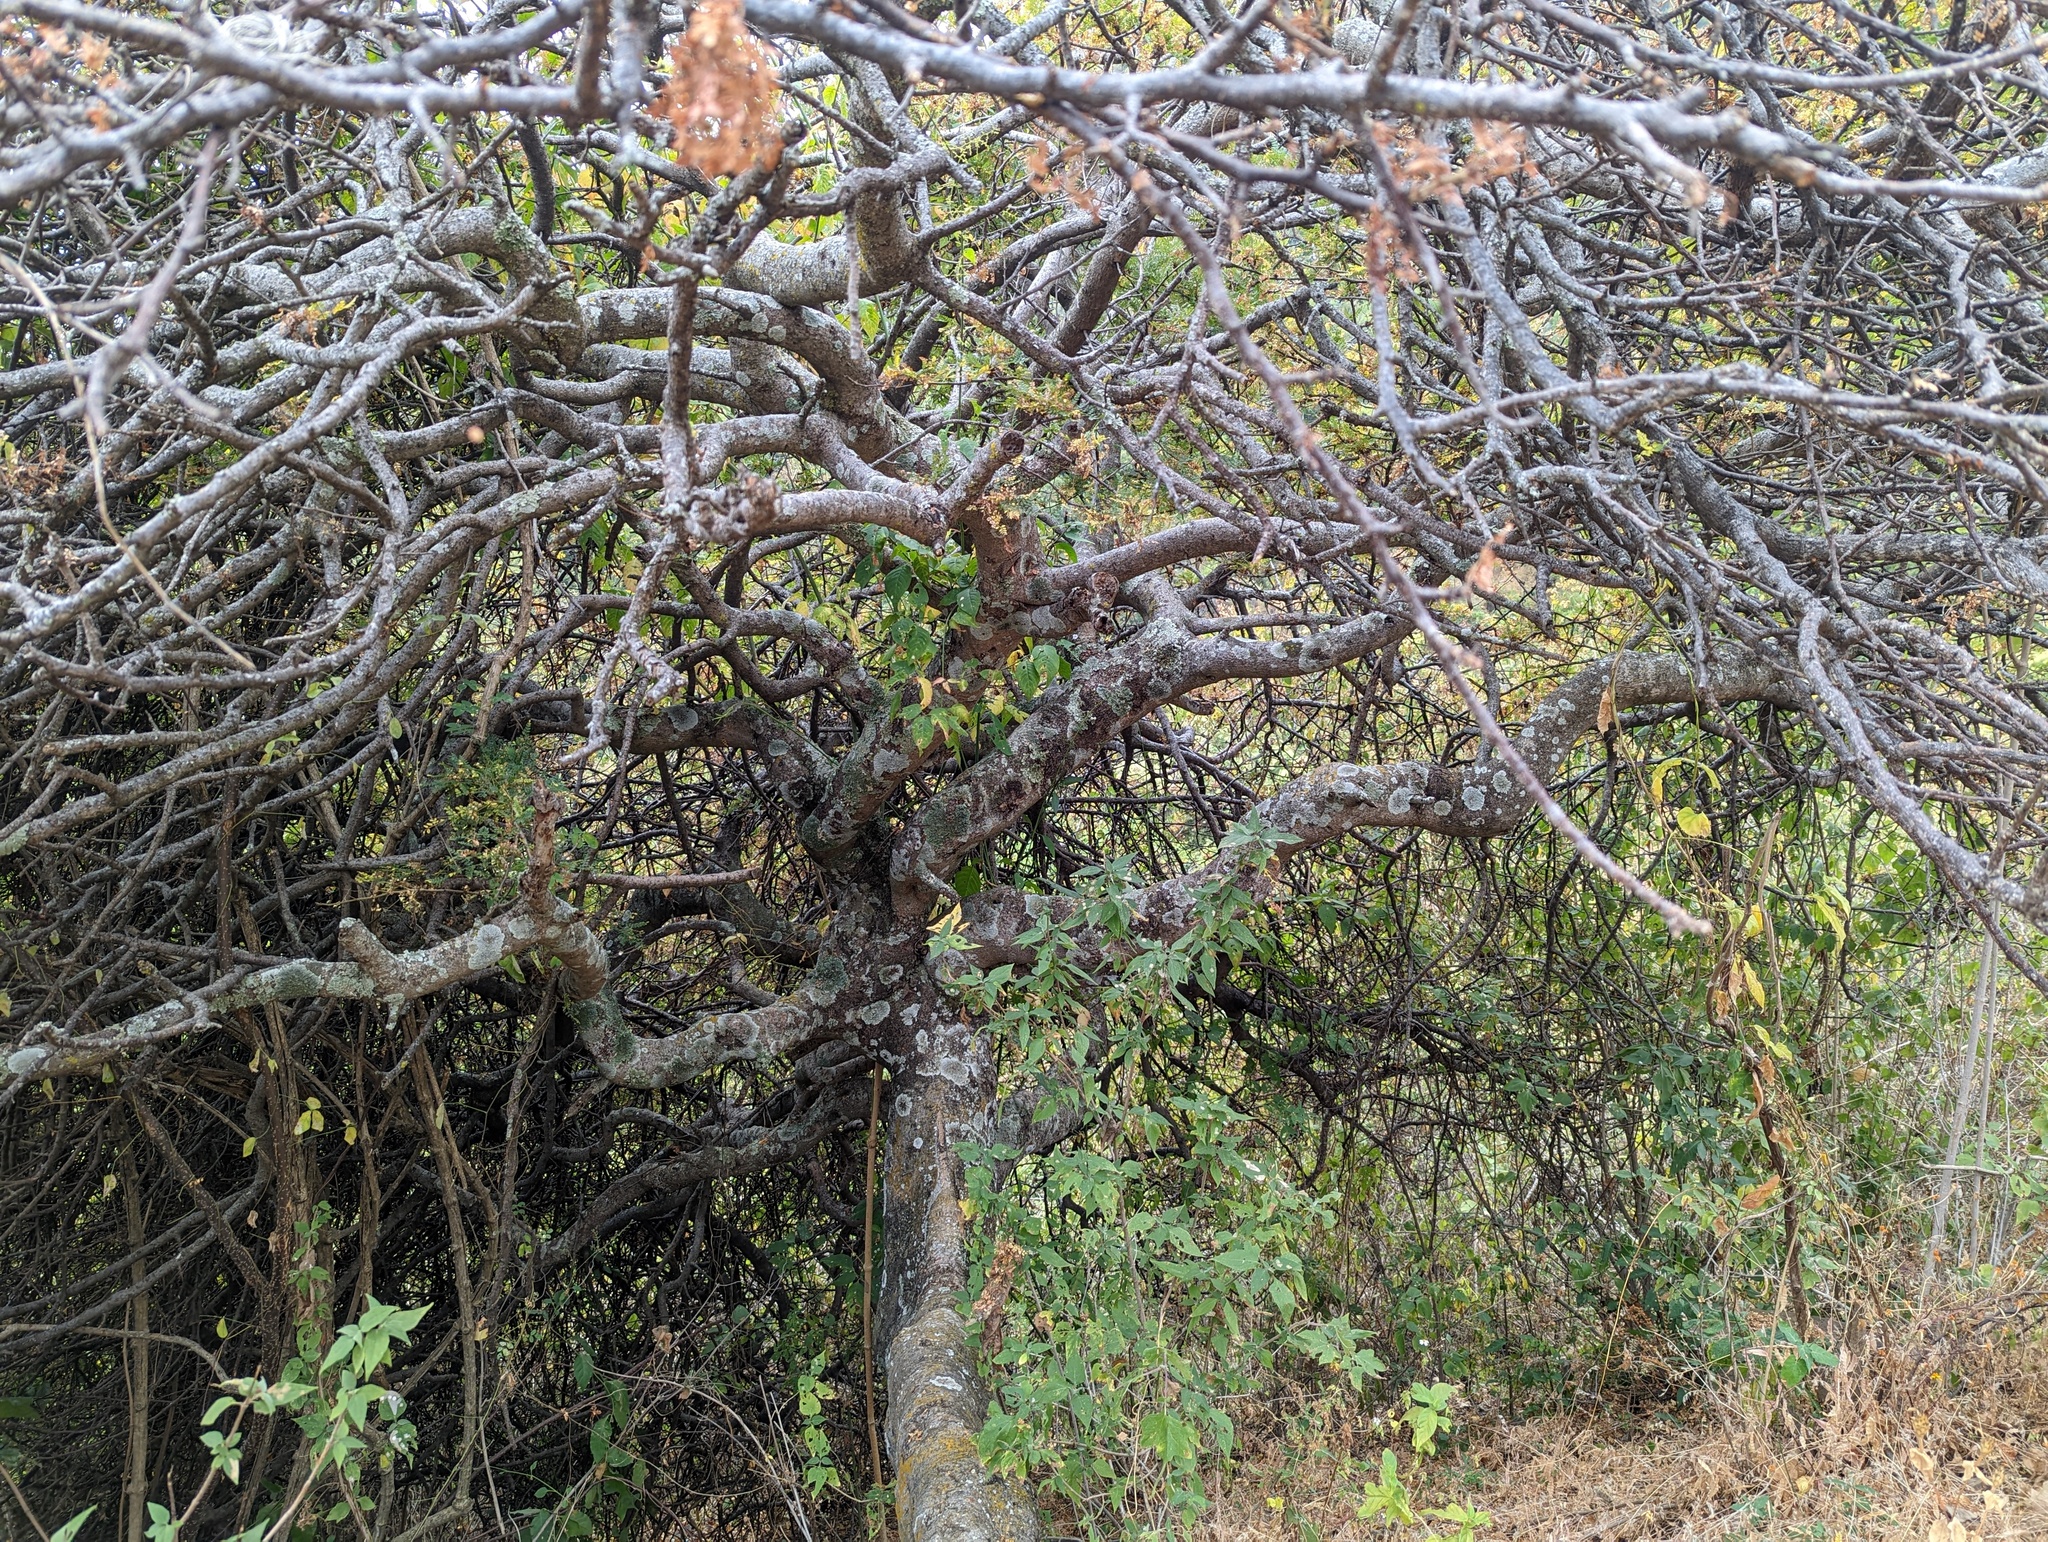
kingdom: Plantae
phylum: Tracheophyta
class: Magnoliopsida
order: Sapindales
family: Burseraceae
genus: Bursera
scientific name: Bursera bipinnata
